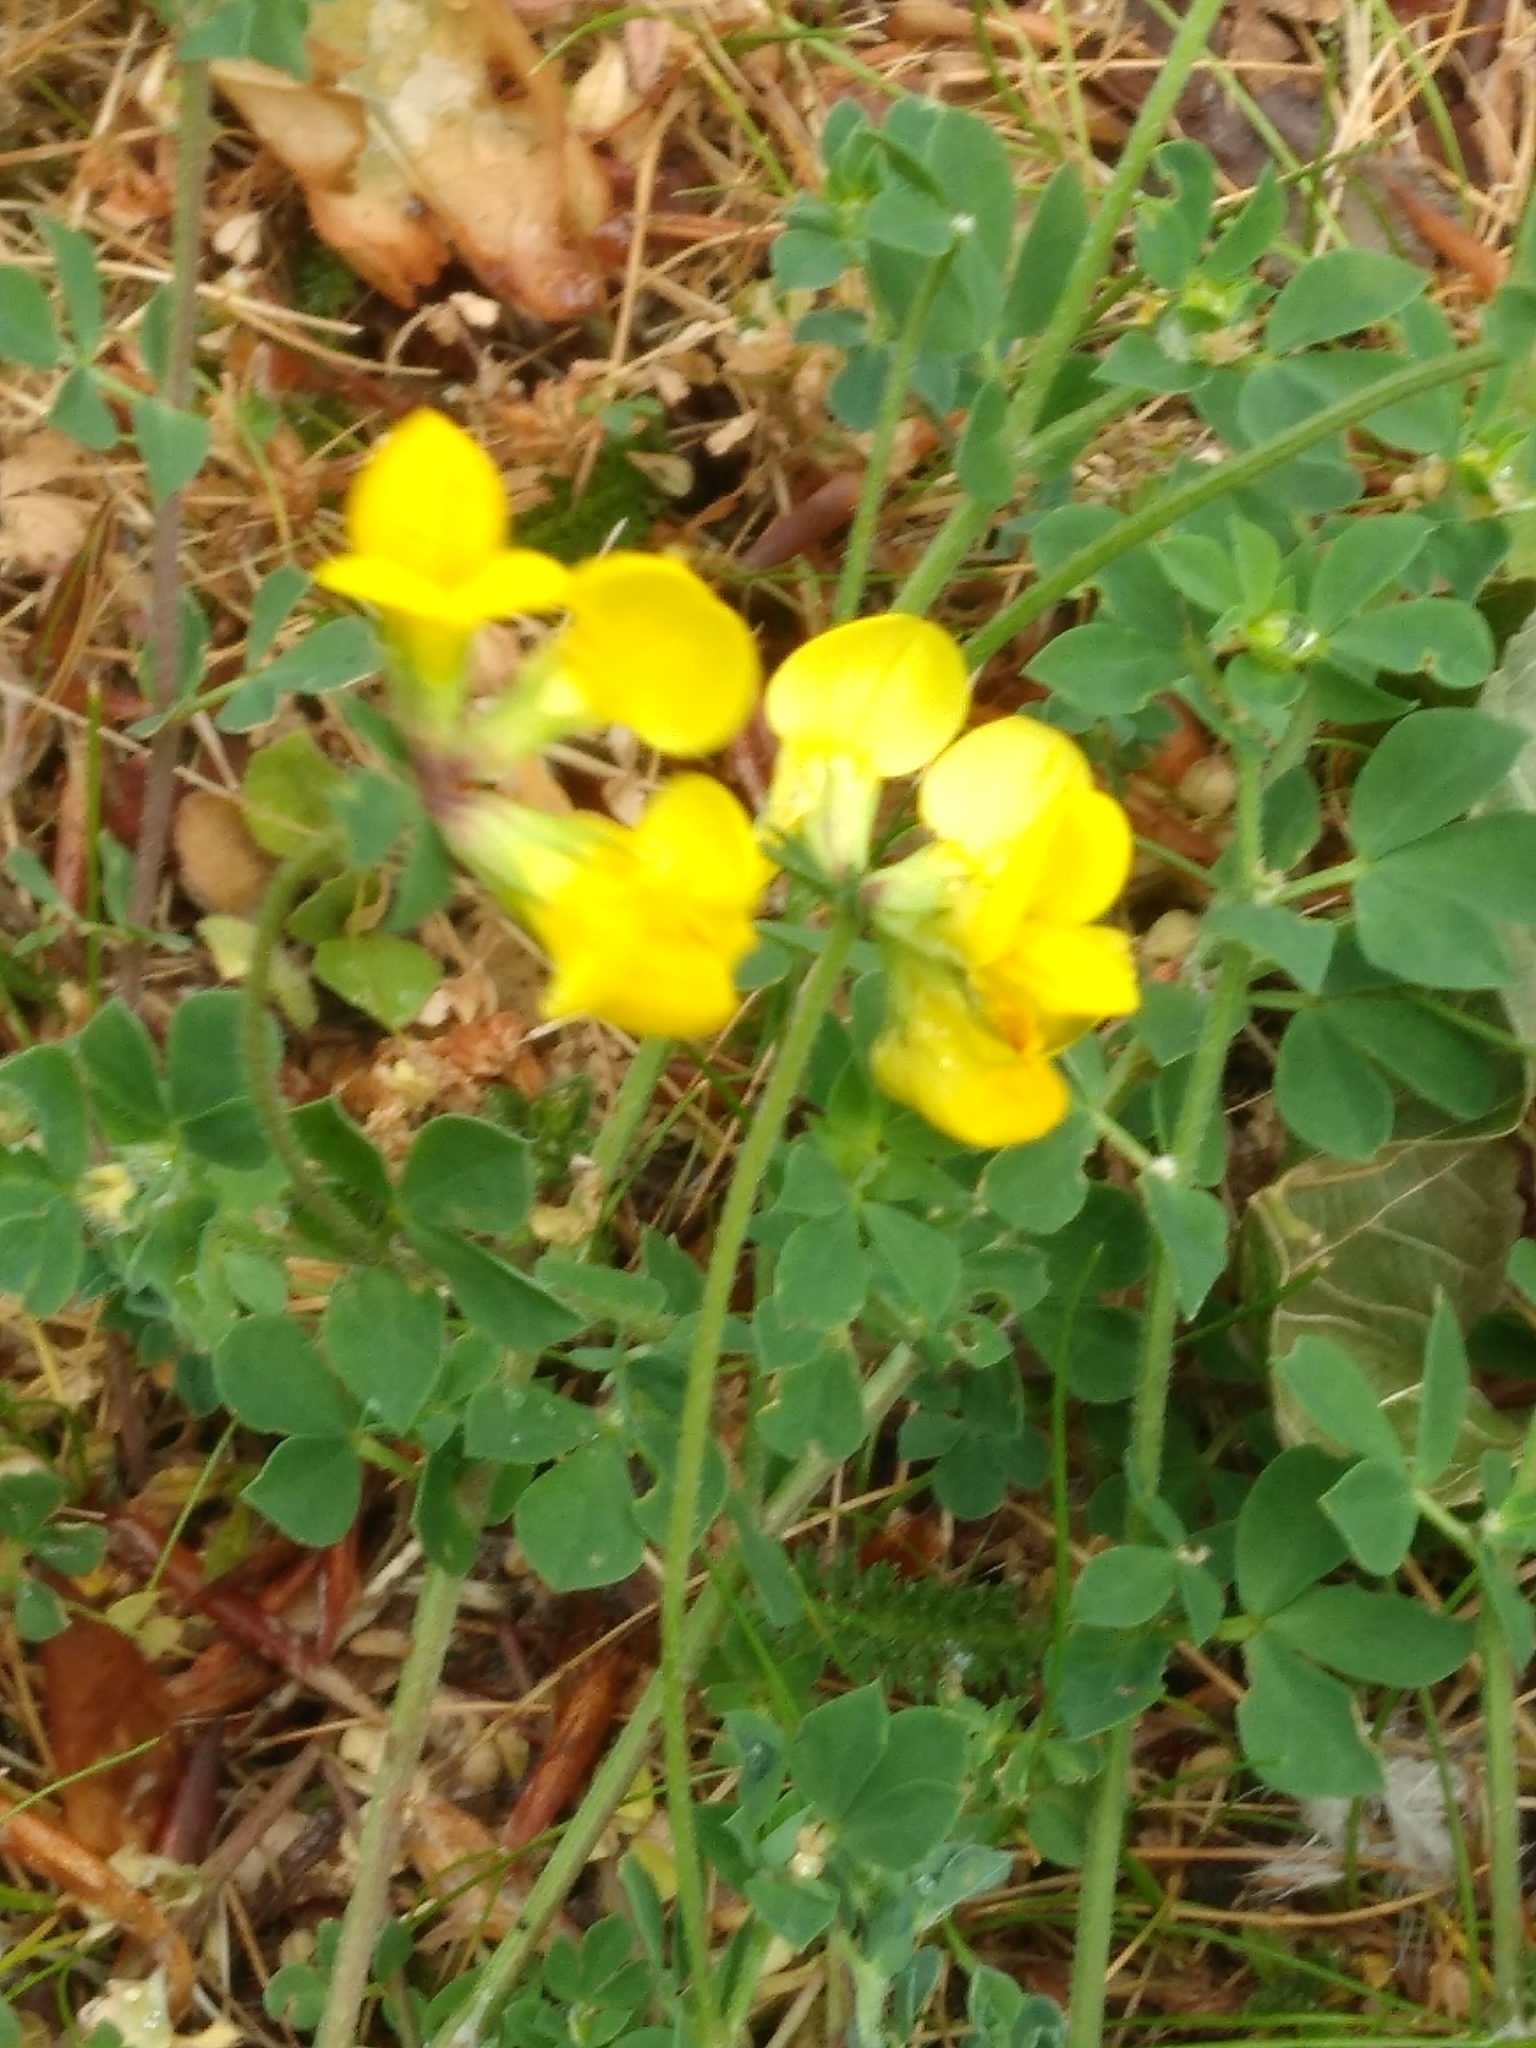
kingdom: Plantae
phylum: Tracheophyta
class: Magnoliopsida
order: Fabales
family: Fabaceae
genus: Lotus
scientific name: Lotus corniculatus
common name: Common bird's-foot-trefoil
